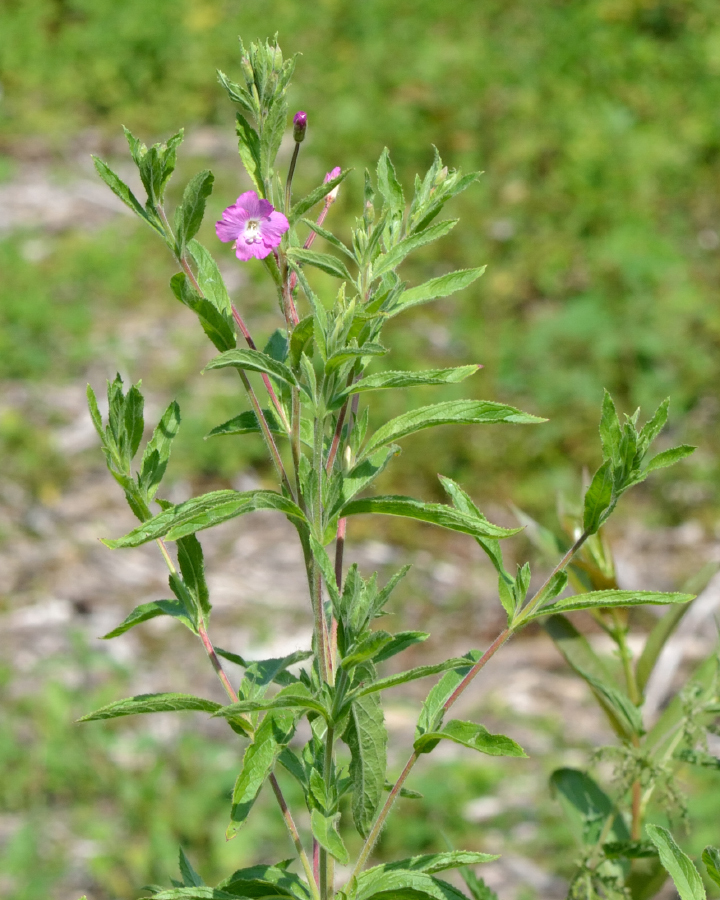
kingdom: Plantae
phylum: Tracheophyta
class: Magnoliopsida
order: Myrtales
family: Onagraceae
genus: Epilobium
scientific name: Epilobium hirsutum
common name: Great willowherb
